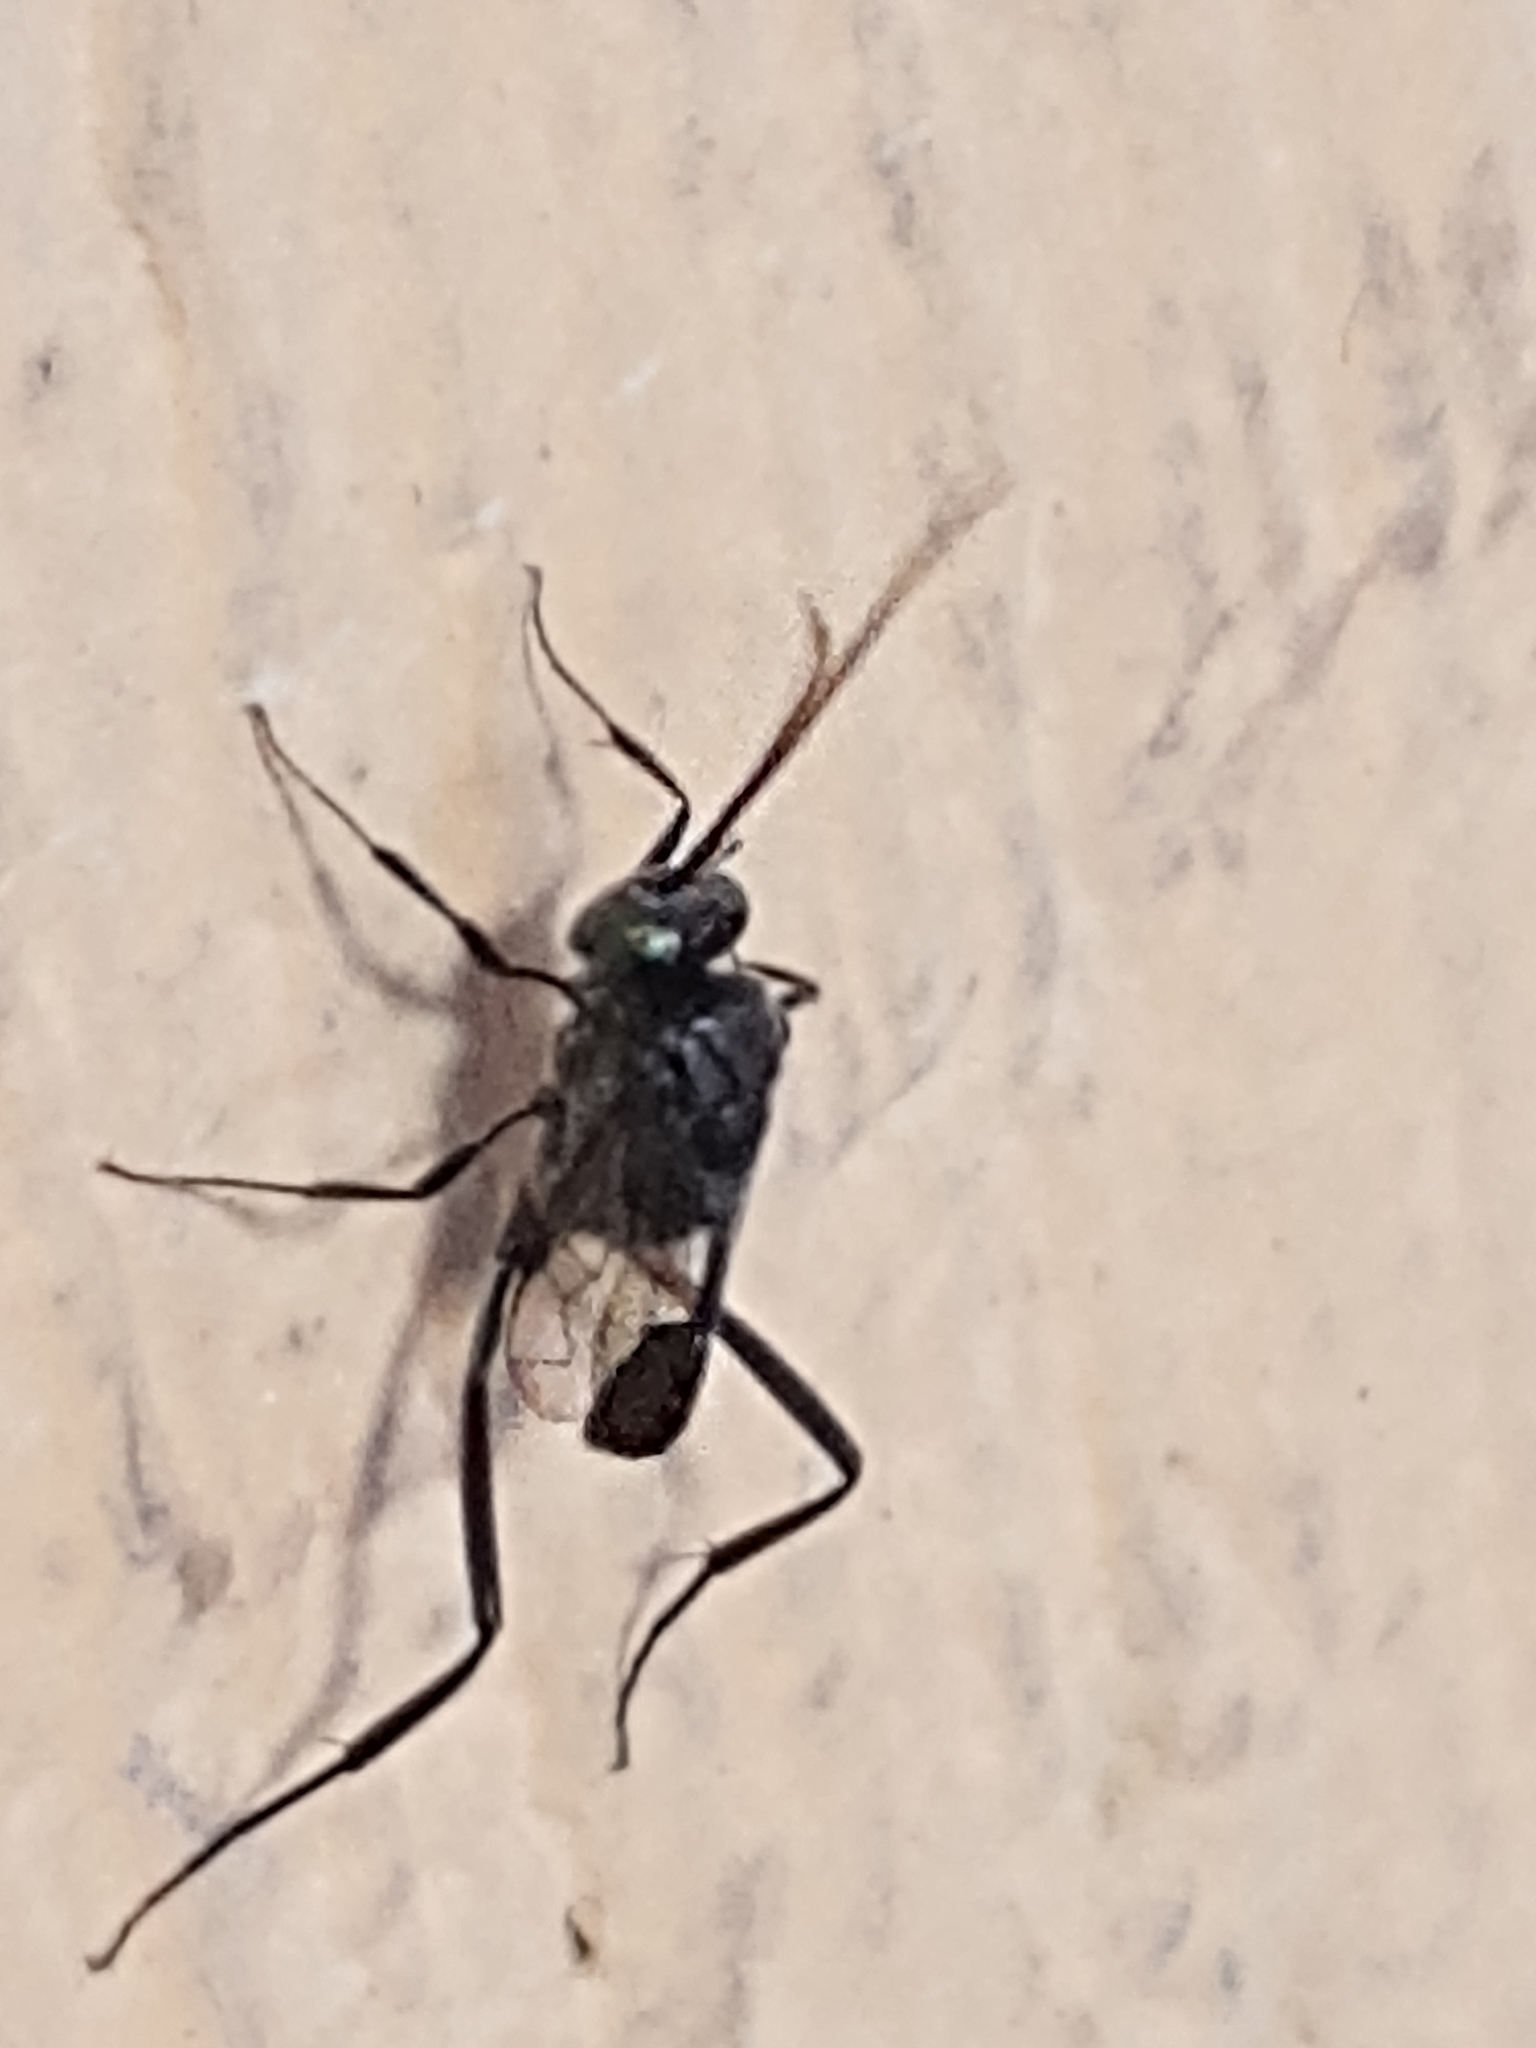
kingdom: Animalia
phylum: Arthropoda
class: Insecta
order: Hymenoptera
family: Evaniidae
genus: Evania
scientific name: Evania appendigaster
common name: Ensign wasp
